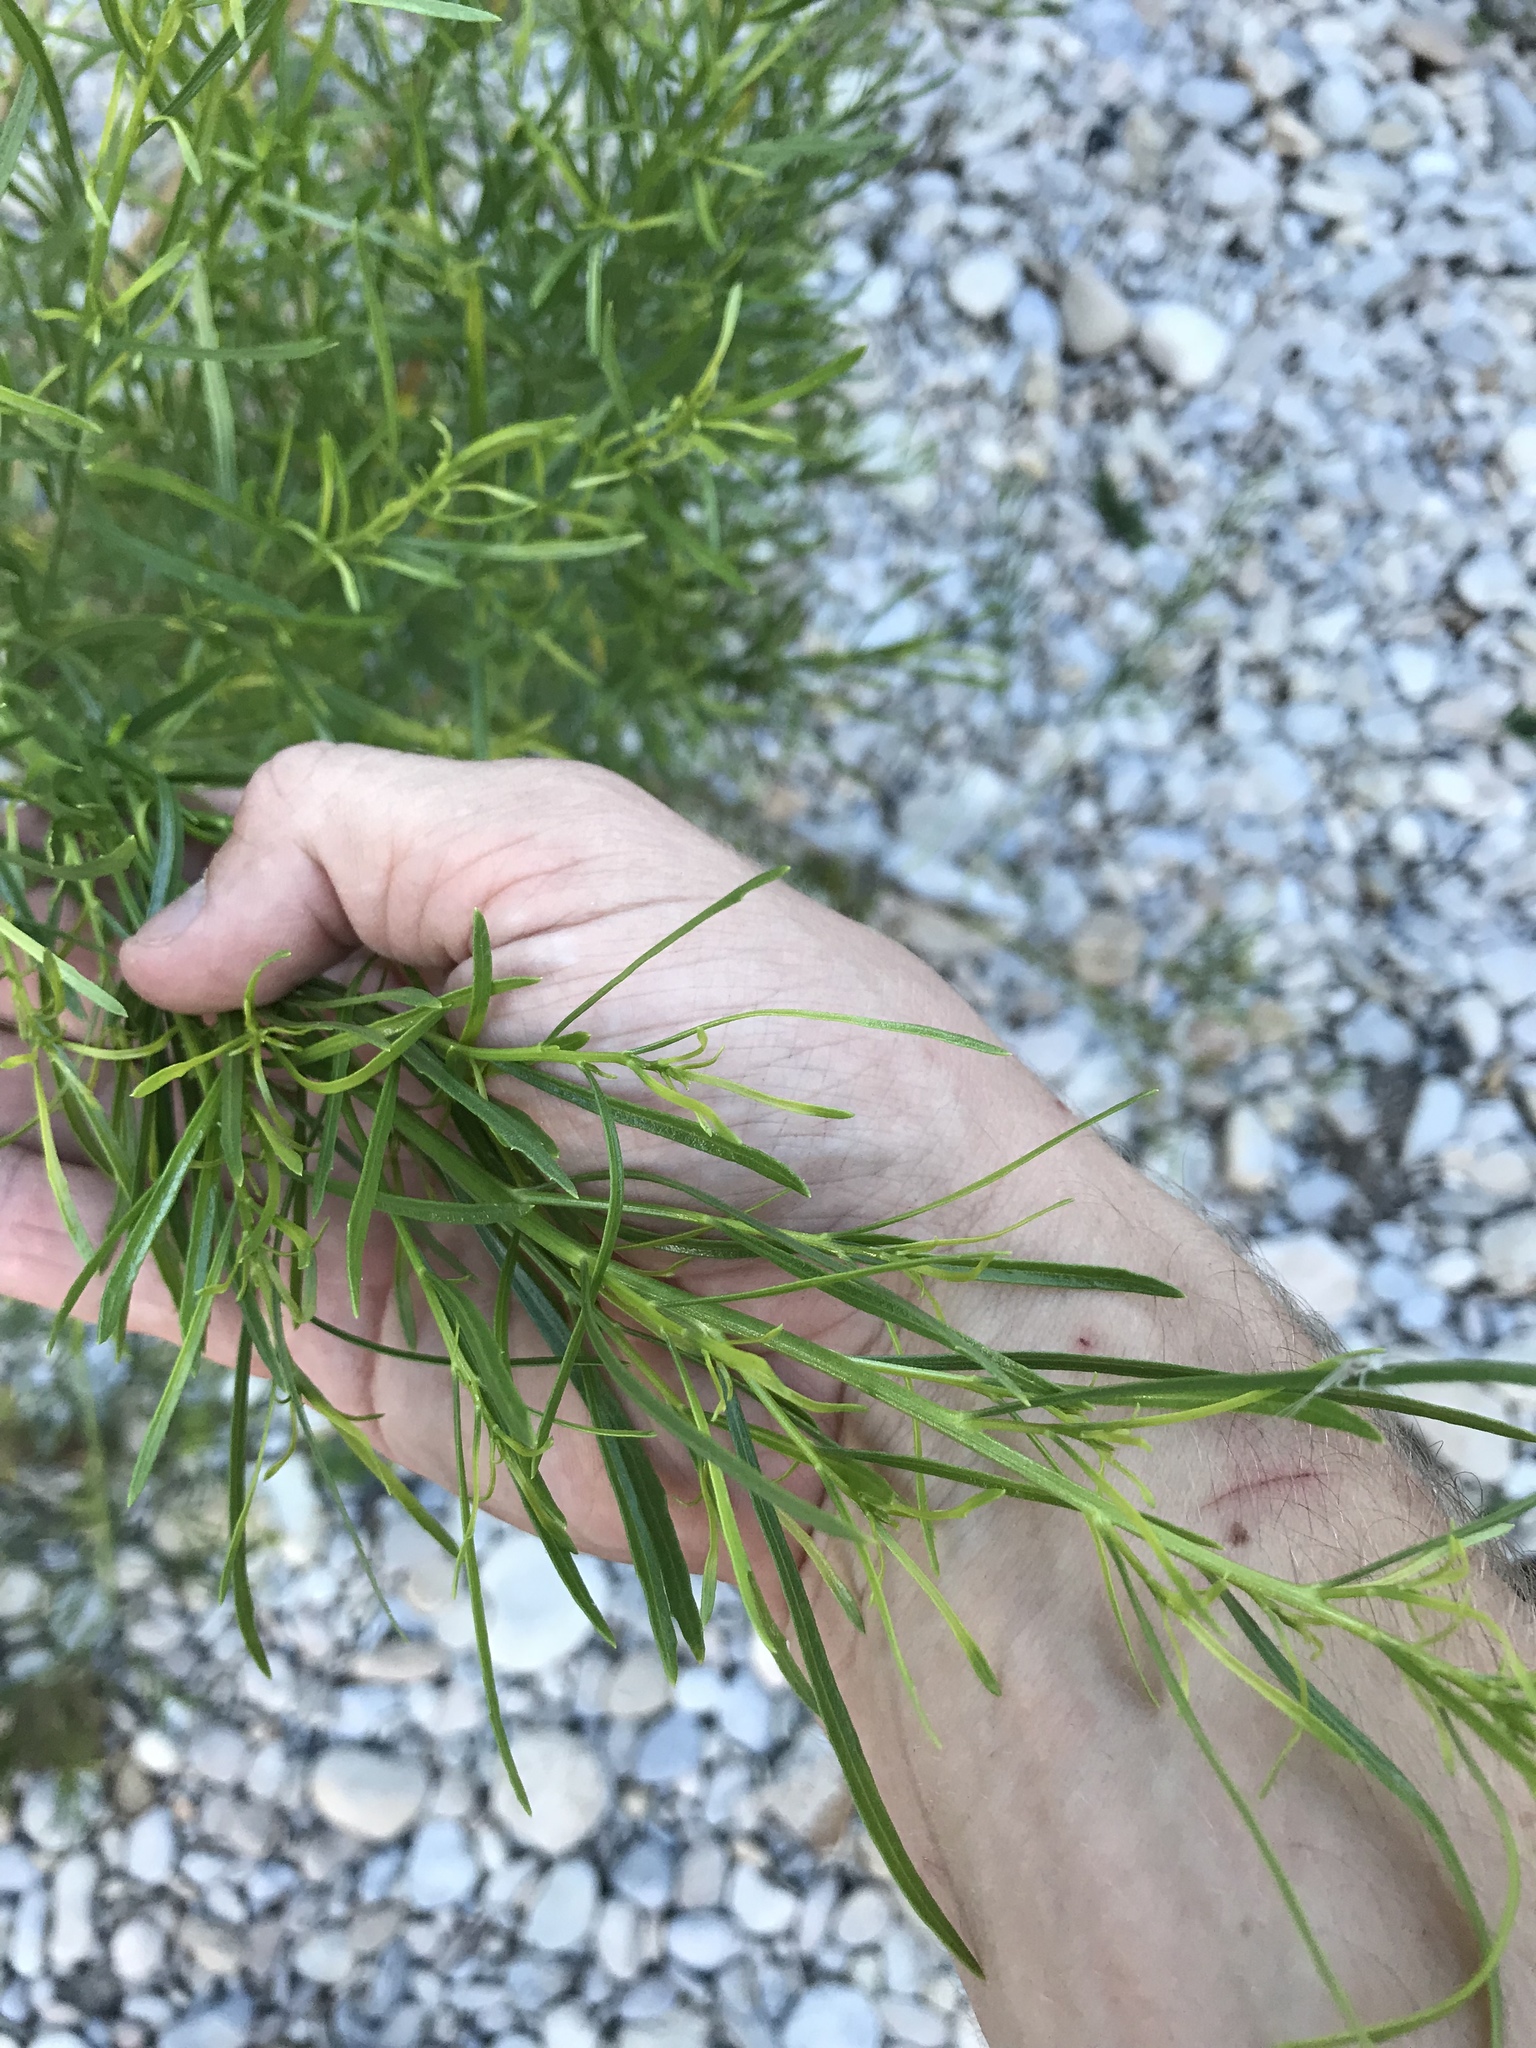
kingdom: Plantae
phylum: Tracheophyta
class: Magnoliopsida
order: Asterales
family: Asteraceae
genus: Baccharis
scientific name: Baccharis neglecta
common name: Roosevelt-weed
